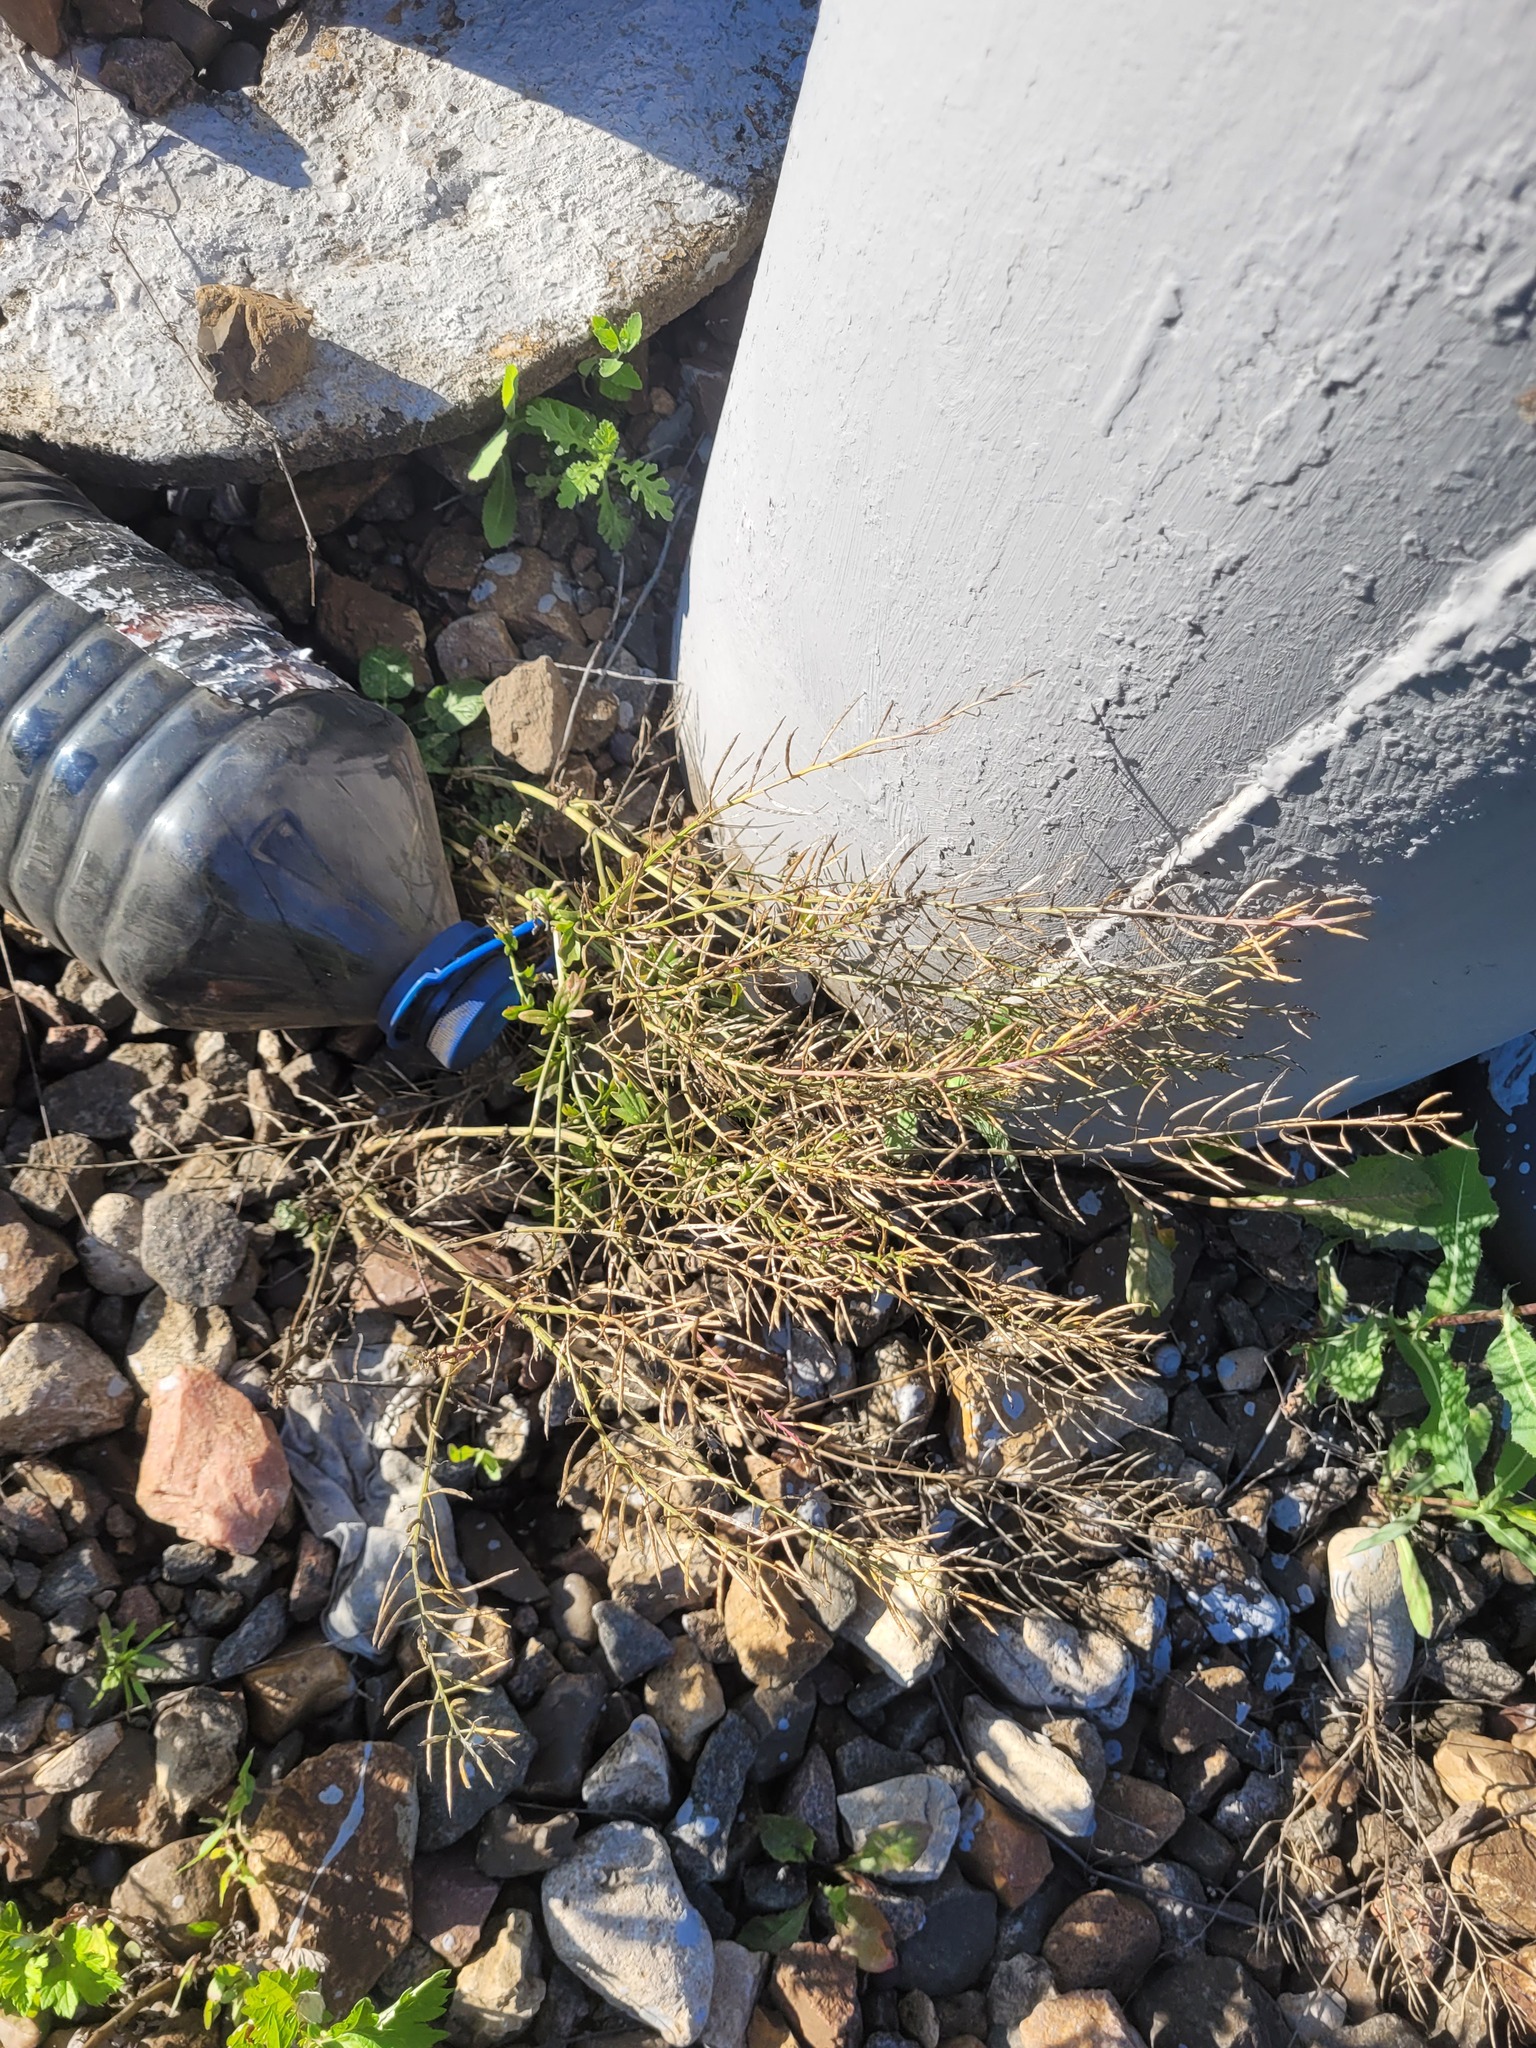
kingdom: Plantae
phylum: Tracheophyta
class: Magnoliopsida
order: Brassicales
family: Brassicaceae
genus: Barbarea
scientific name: Barbarea vulgaris
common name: Cressy-greens
